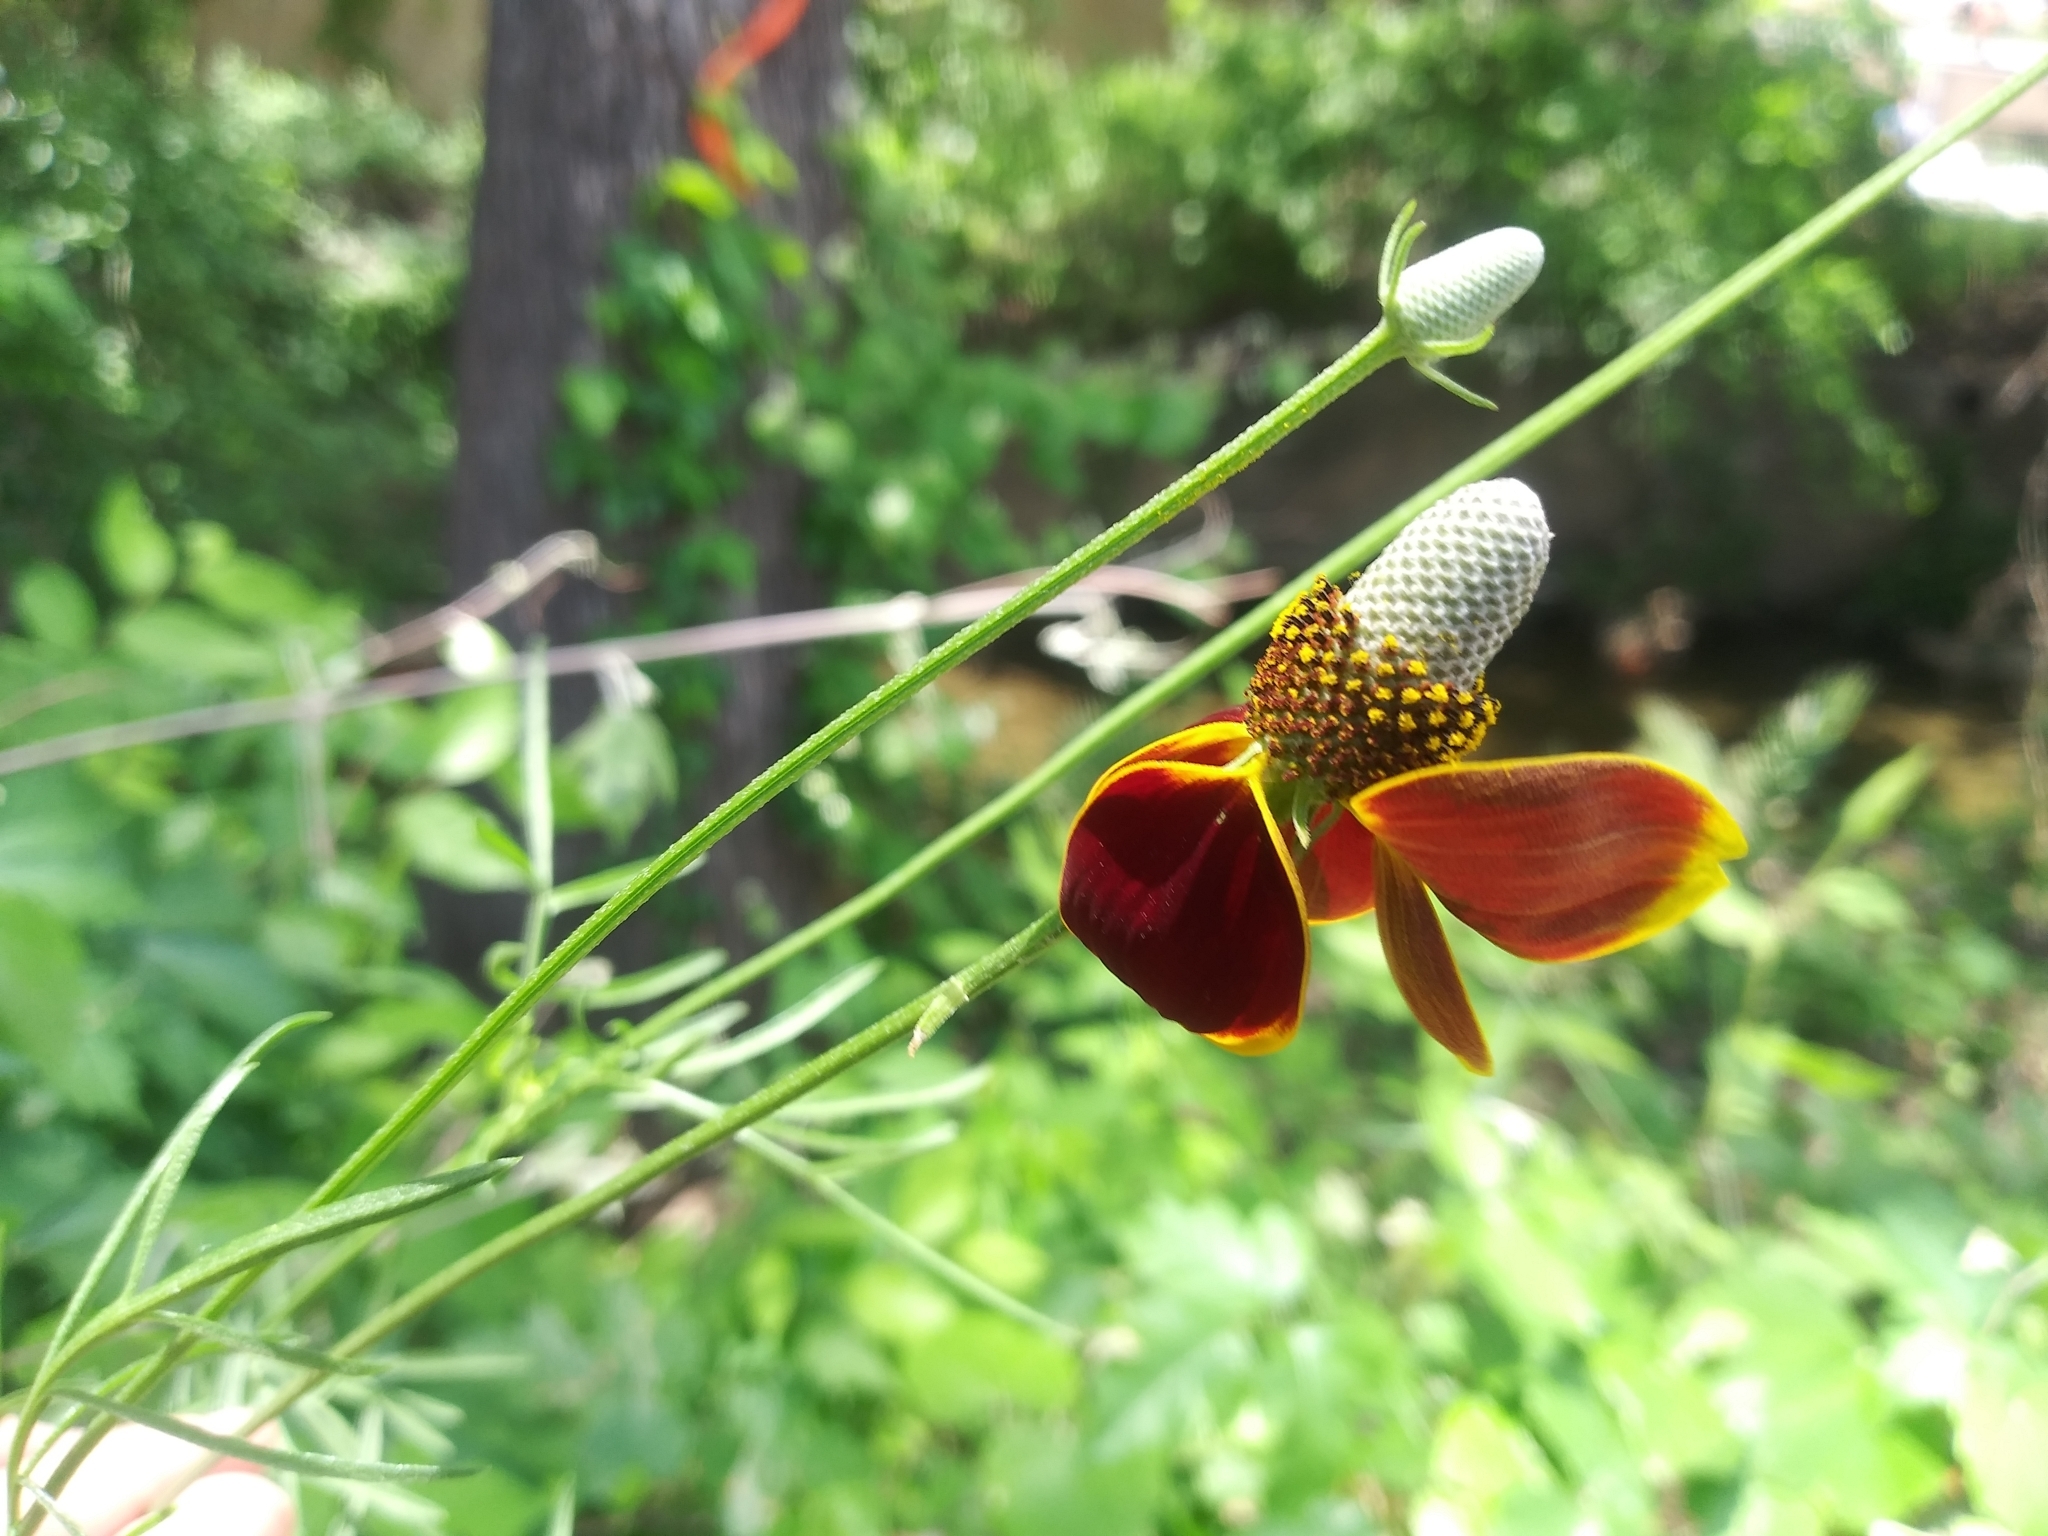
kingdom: Plantae
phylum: Tracheophyta
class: Magnoliopsida
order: Asterales
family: Asteraceae
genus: Ratibida
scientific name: Ratibida columnifera
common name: Prairie coneflower
